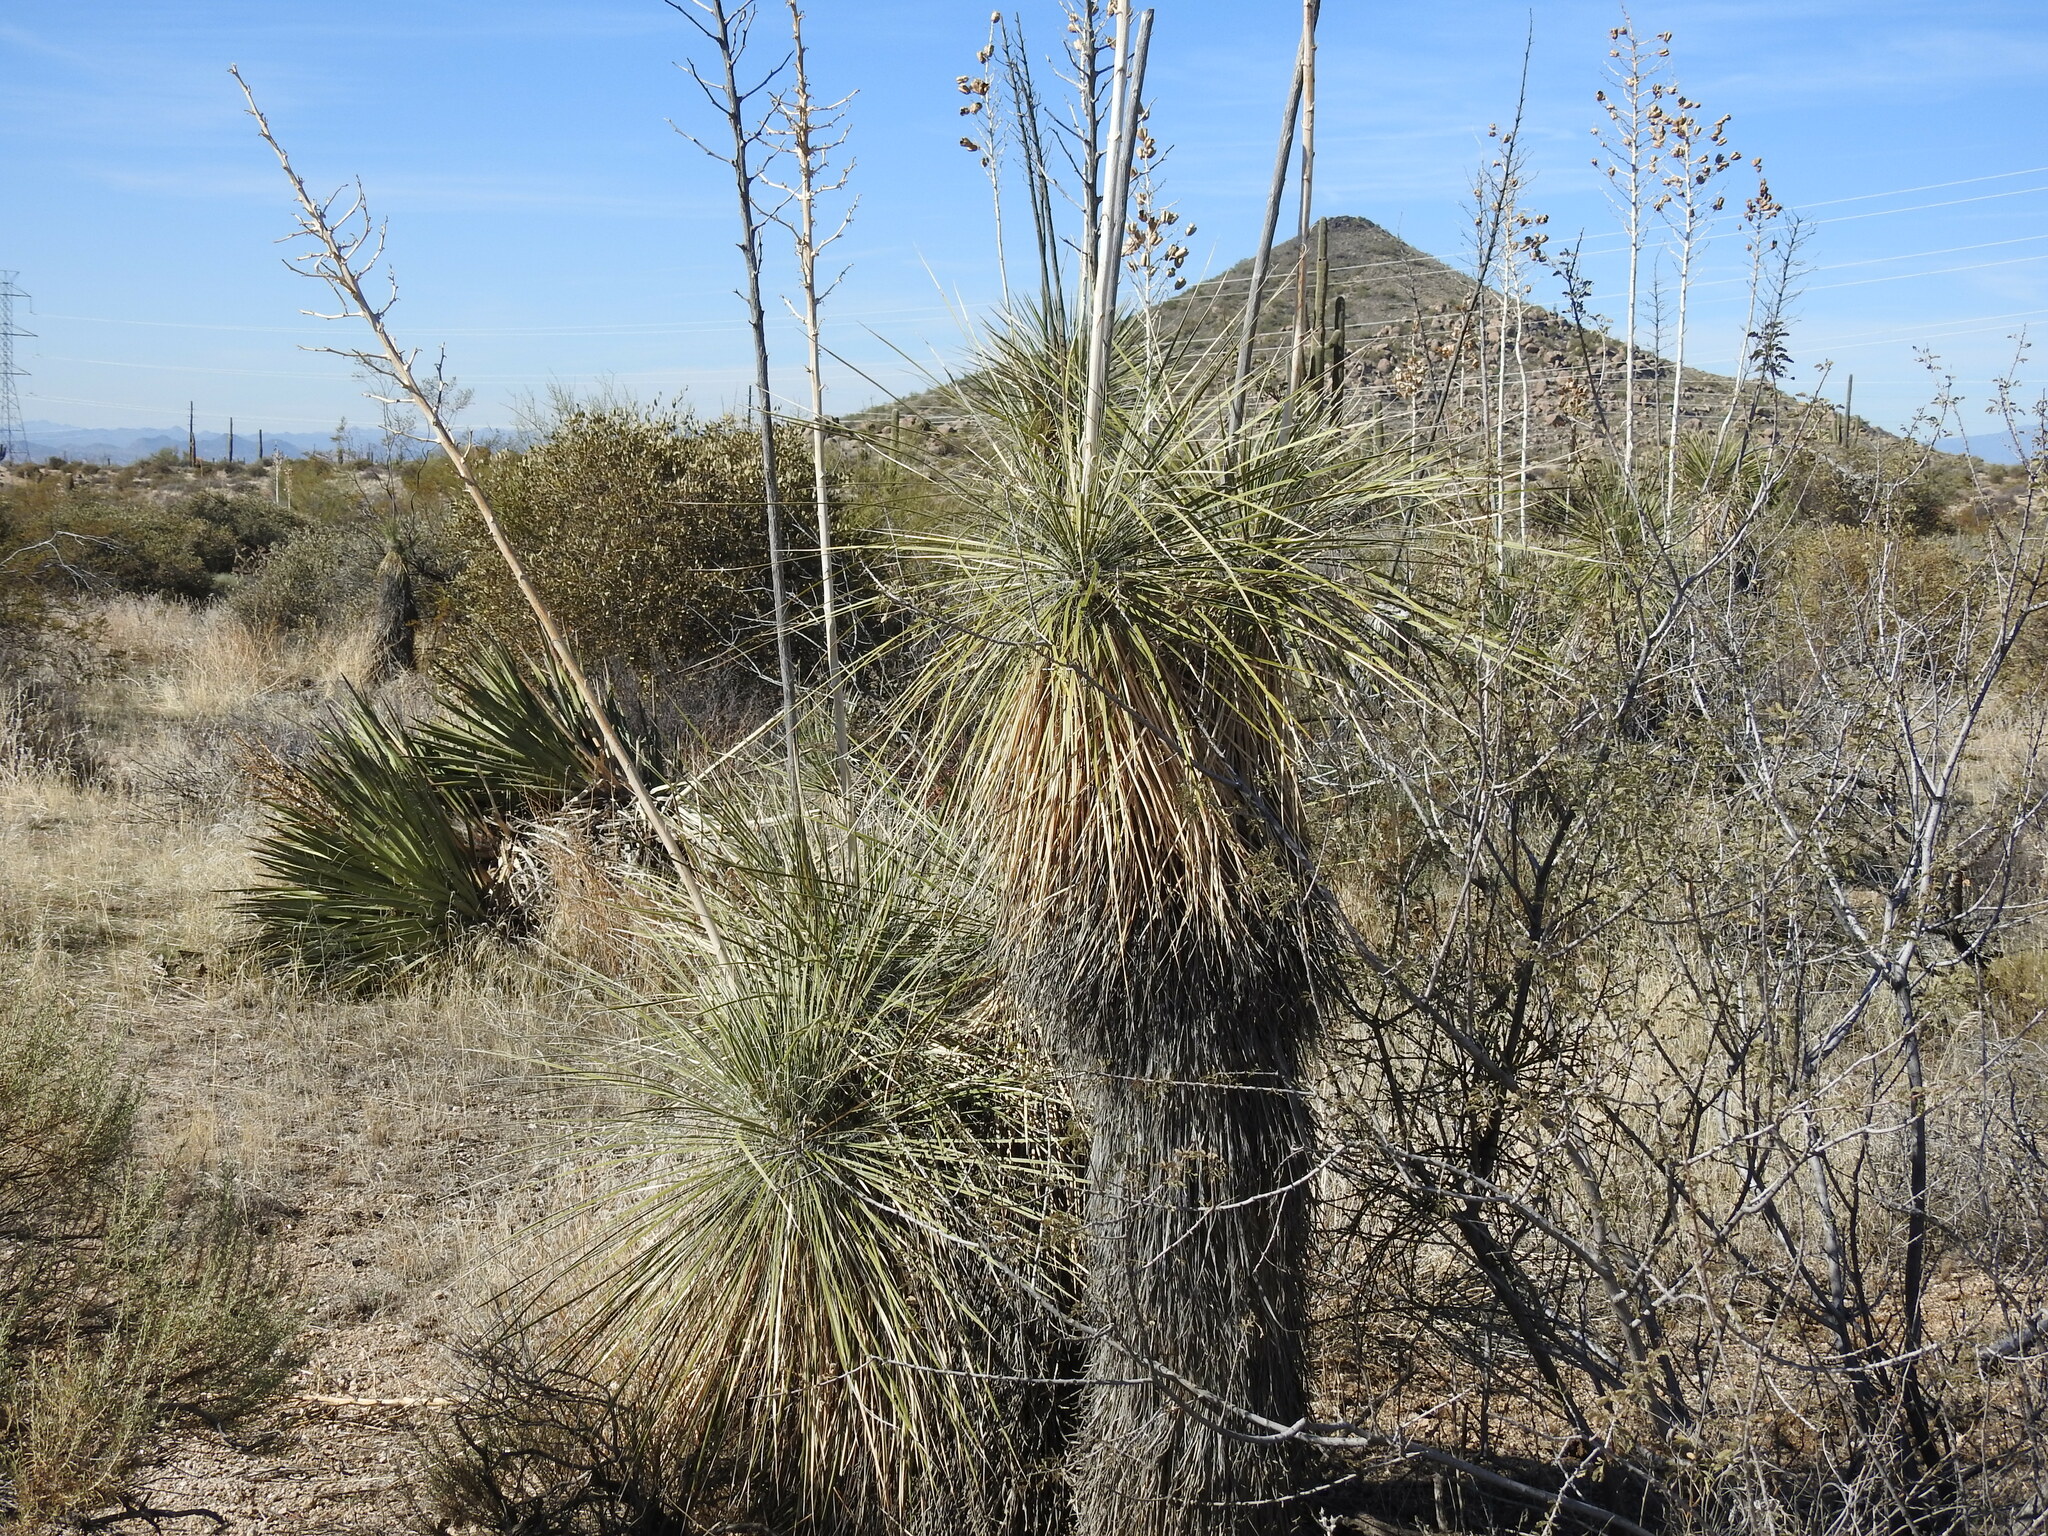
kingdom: Plantae
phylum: Tracheophyta
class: Liliopsida
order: Asparagales
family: Asparagaceae
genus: Yucca
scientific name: Yucca elata
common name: Palmella
